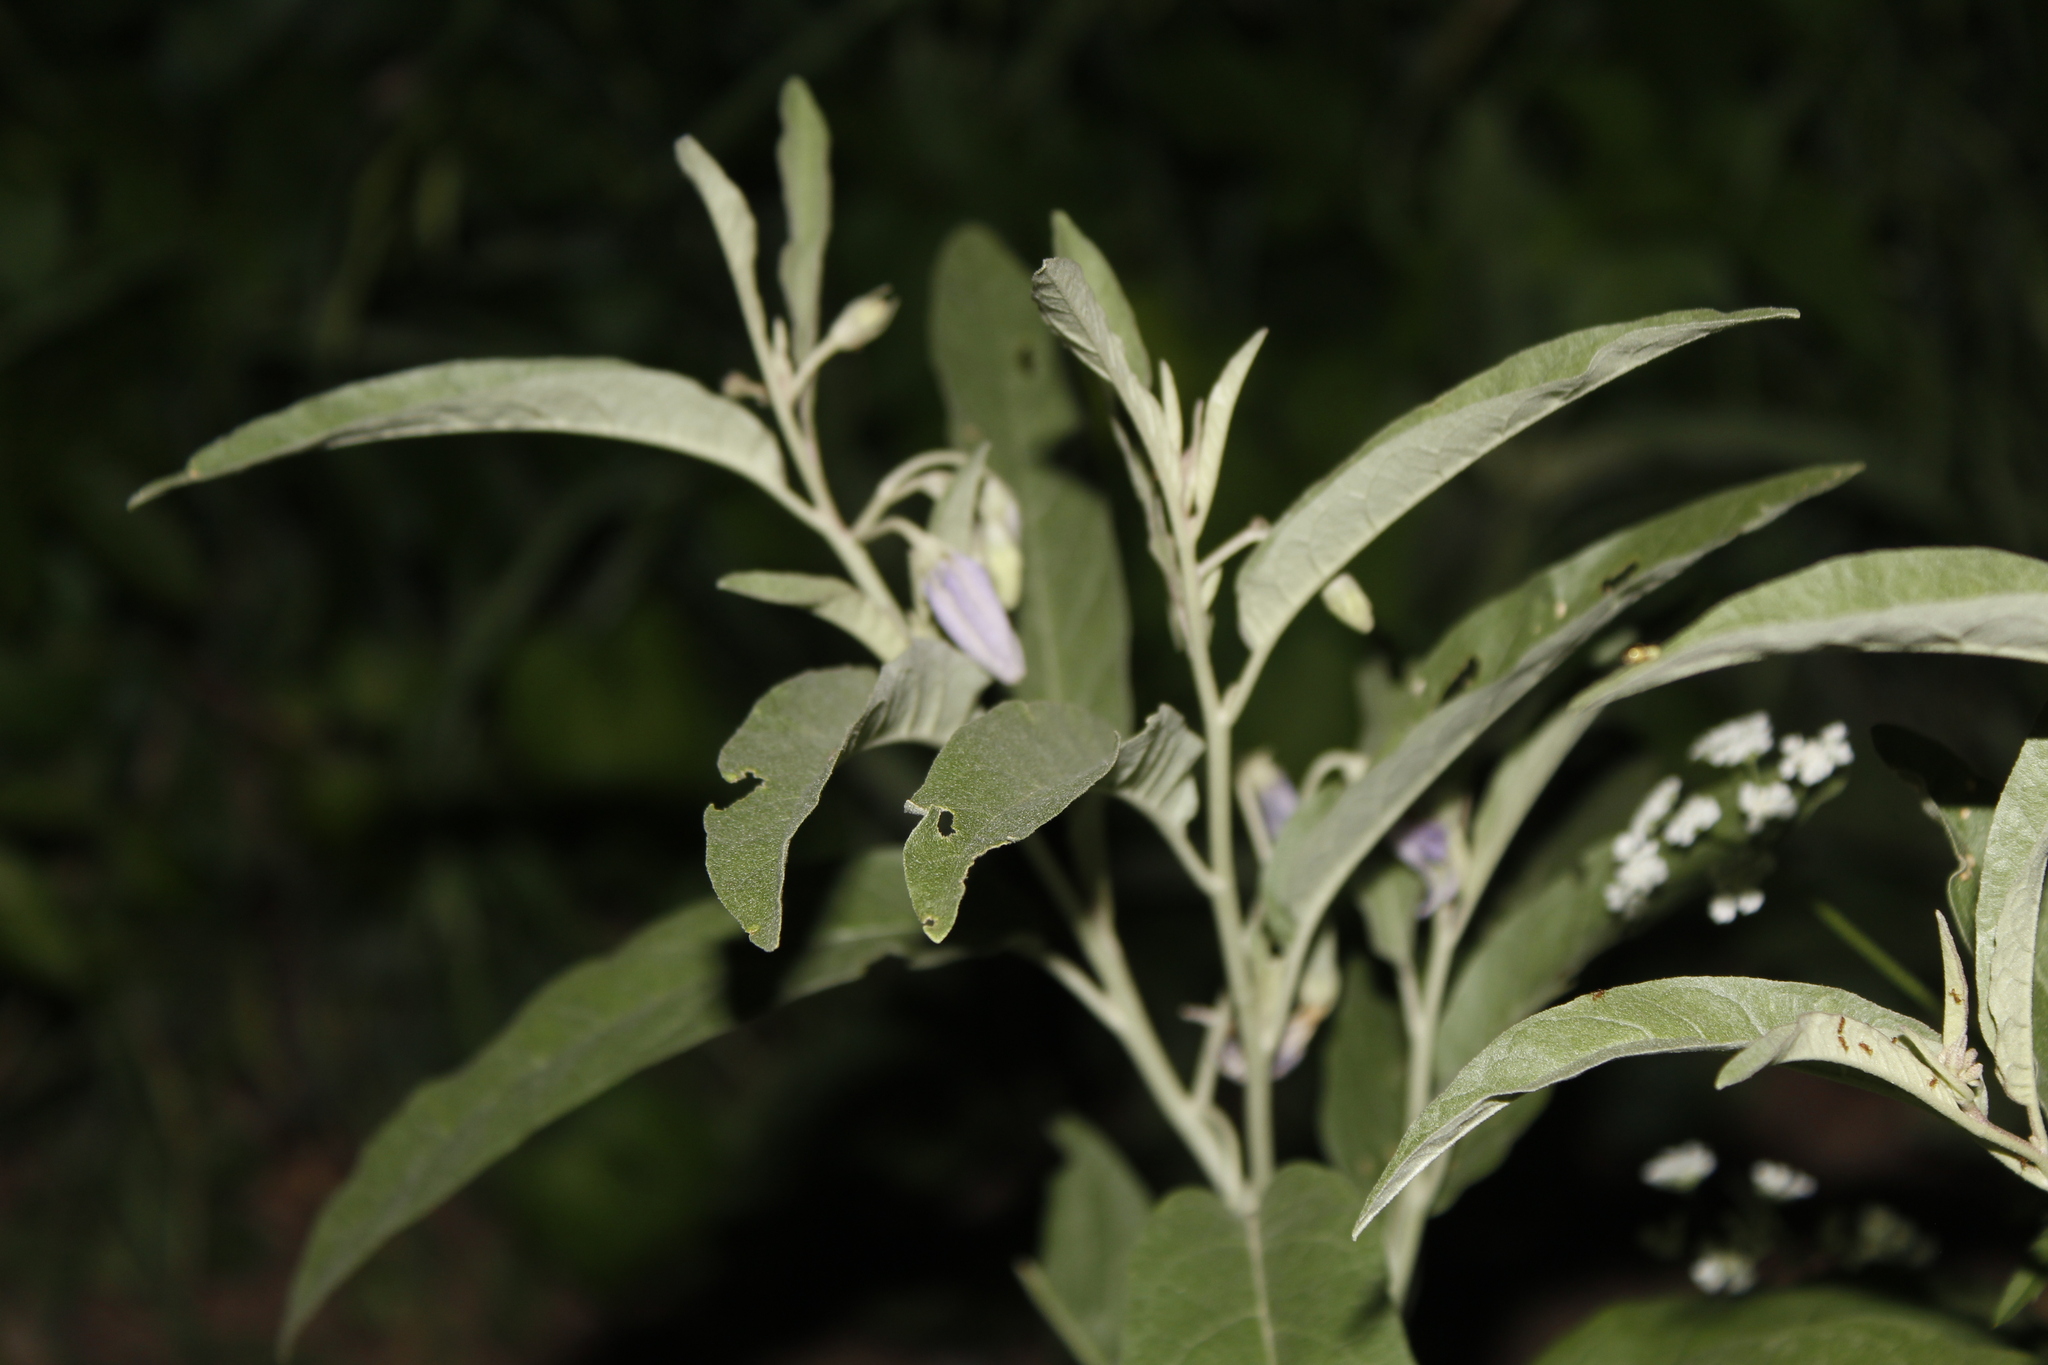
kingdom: Plantae
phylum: Tracheophyta
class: Magnoliopsida
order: Solanales
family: Solanaceae
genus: Solanum
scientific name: Solanum elaeagnifolium
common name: Silverleaf nightshade
